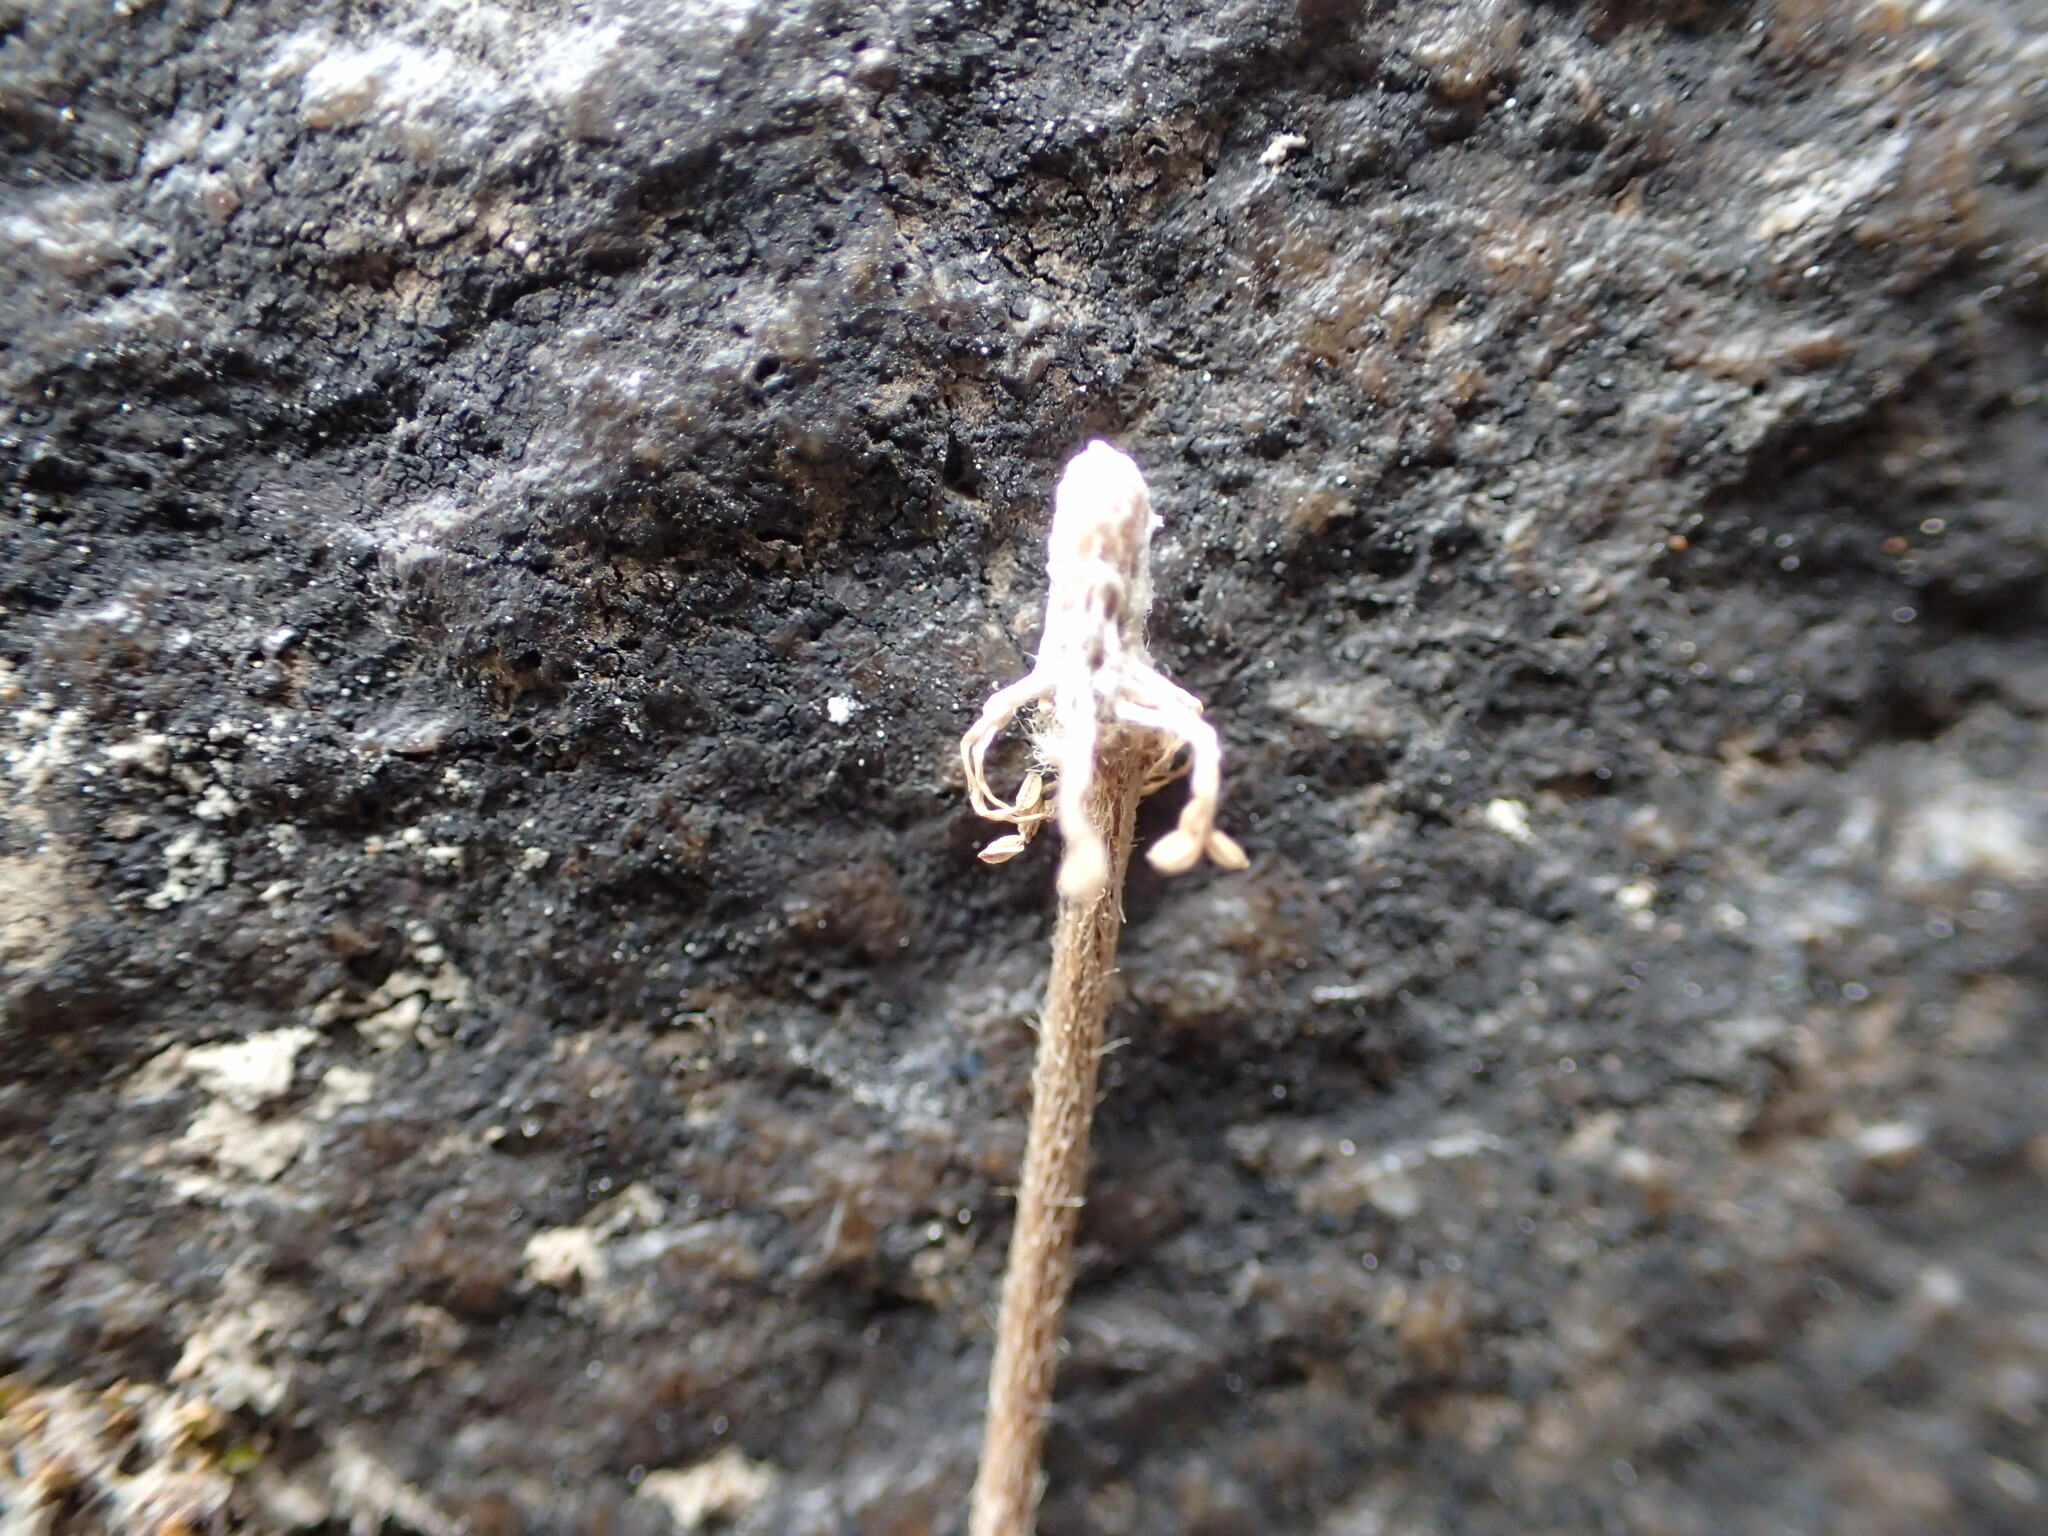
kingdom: Plantae
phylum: Tracheophyta
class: Magnoliopsida
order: Ranunculales
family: Ranunculaceae
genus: Anemone
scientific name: Anemone parviflora
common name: Northern anemone
